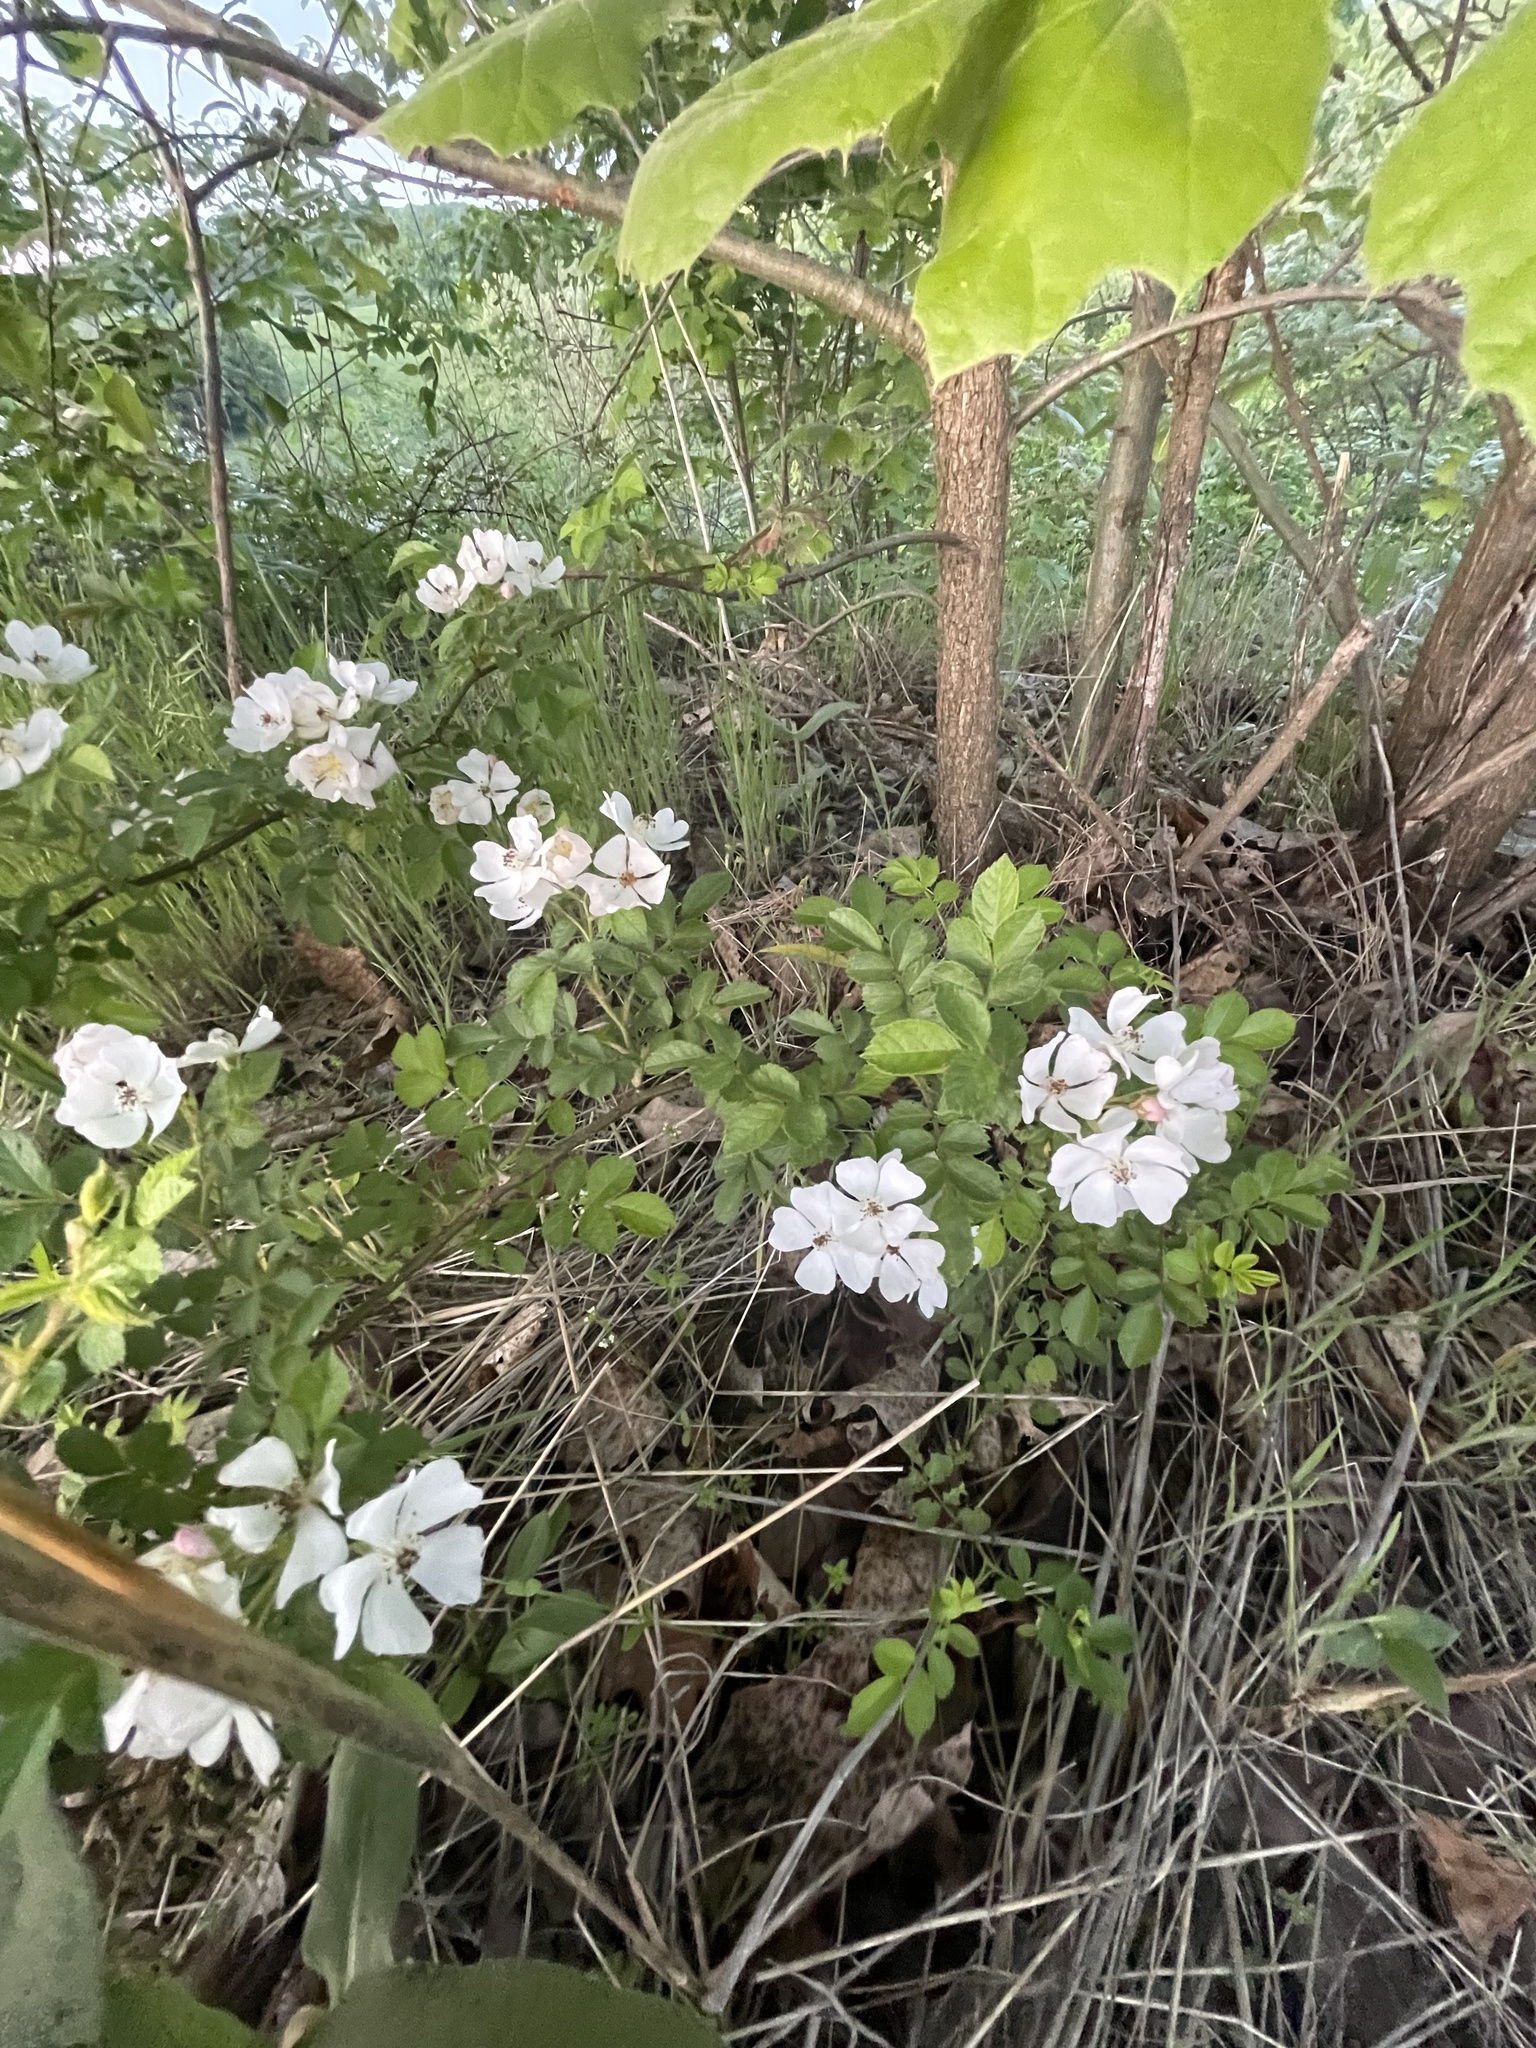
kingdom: Plantae
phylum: Tracheophyta
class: Magnoliopsida
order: Rosales
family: Rosaceae
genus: Rosa
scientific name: Rosa multiflora
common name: Multiflora rose
